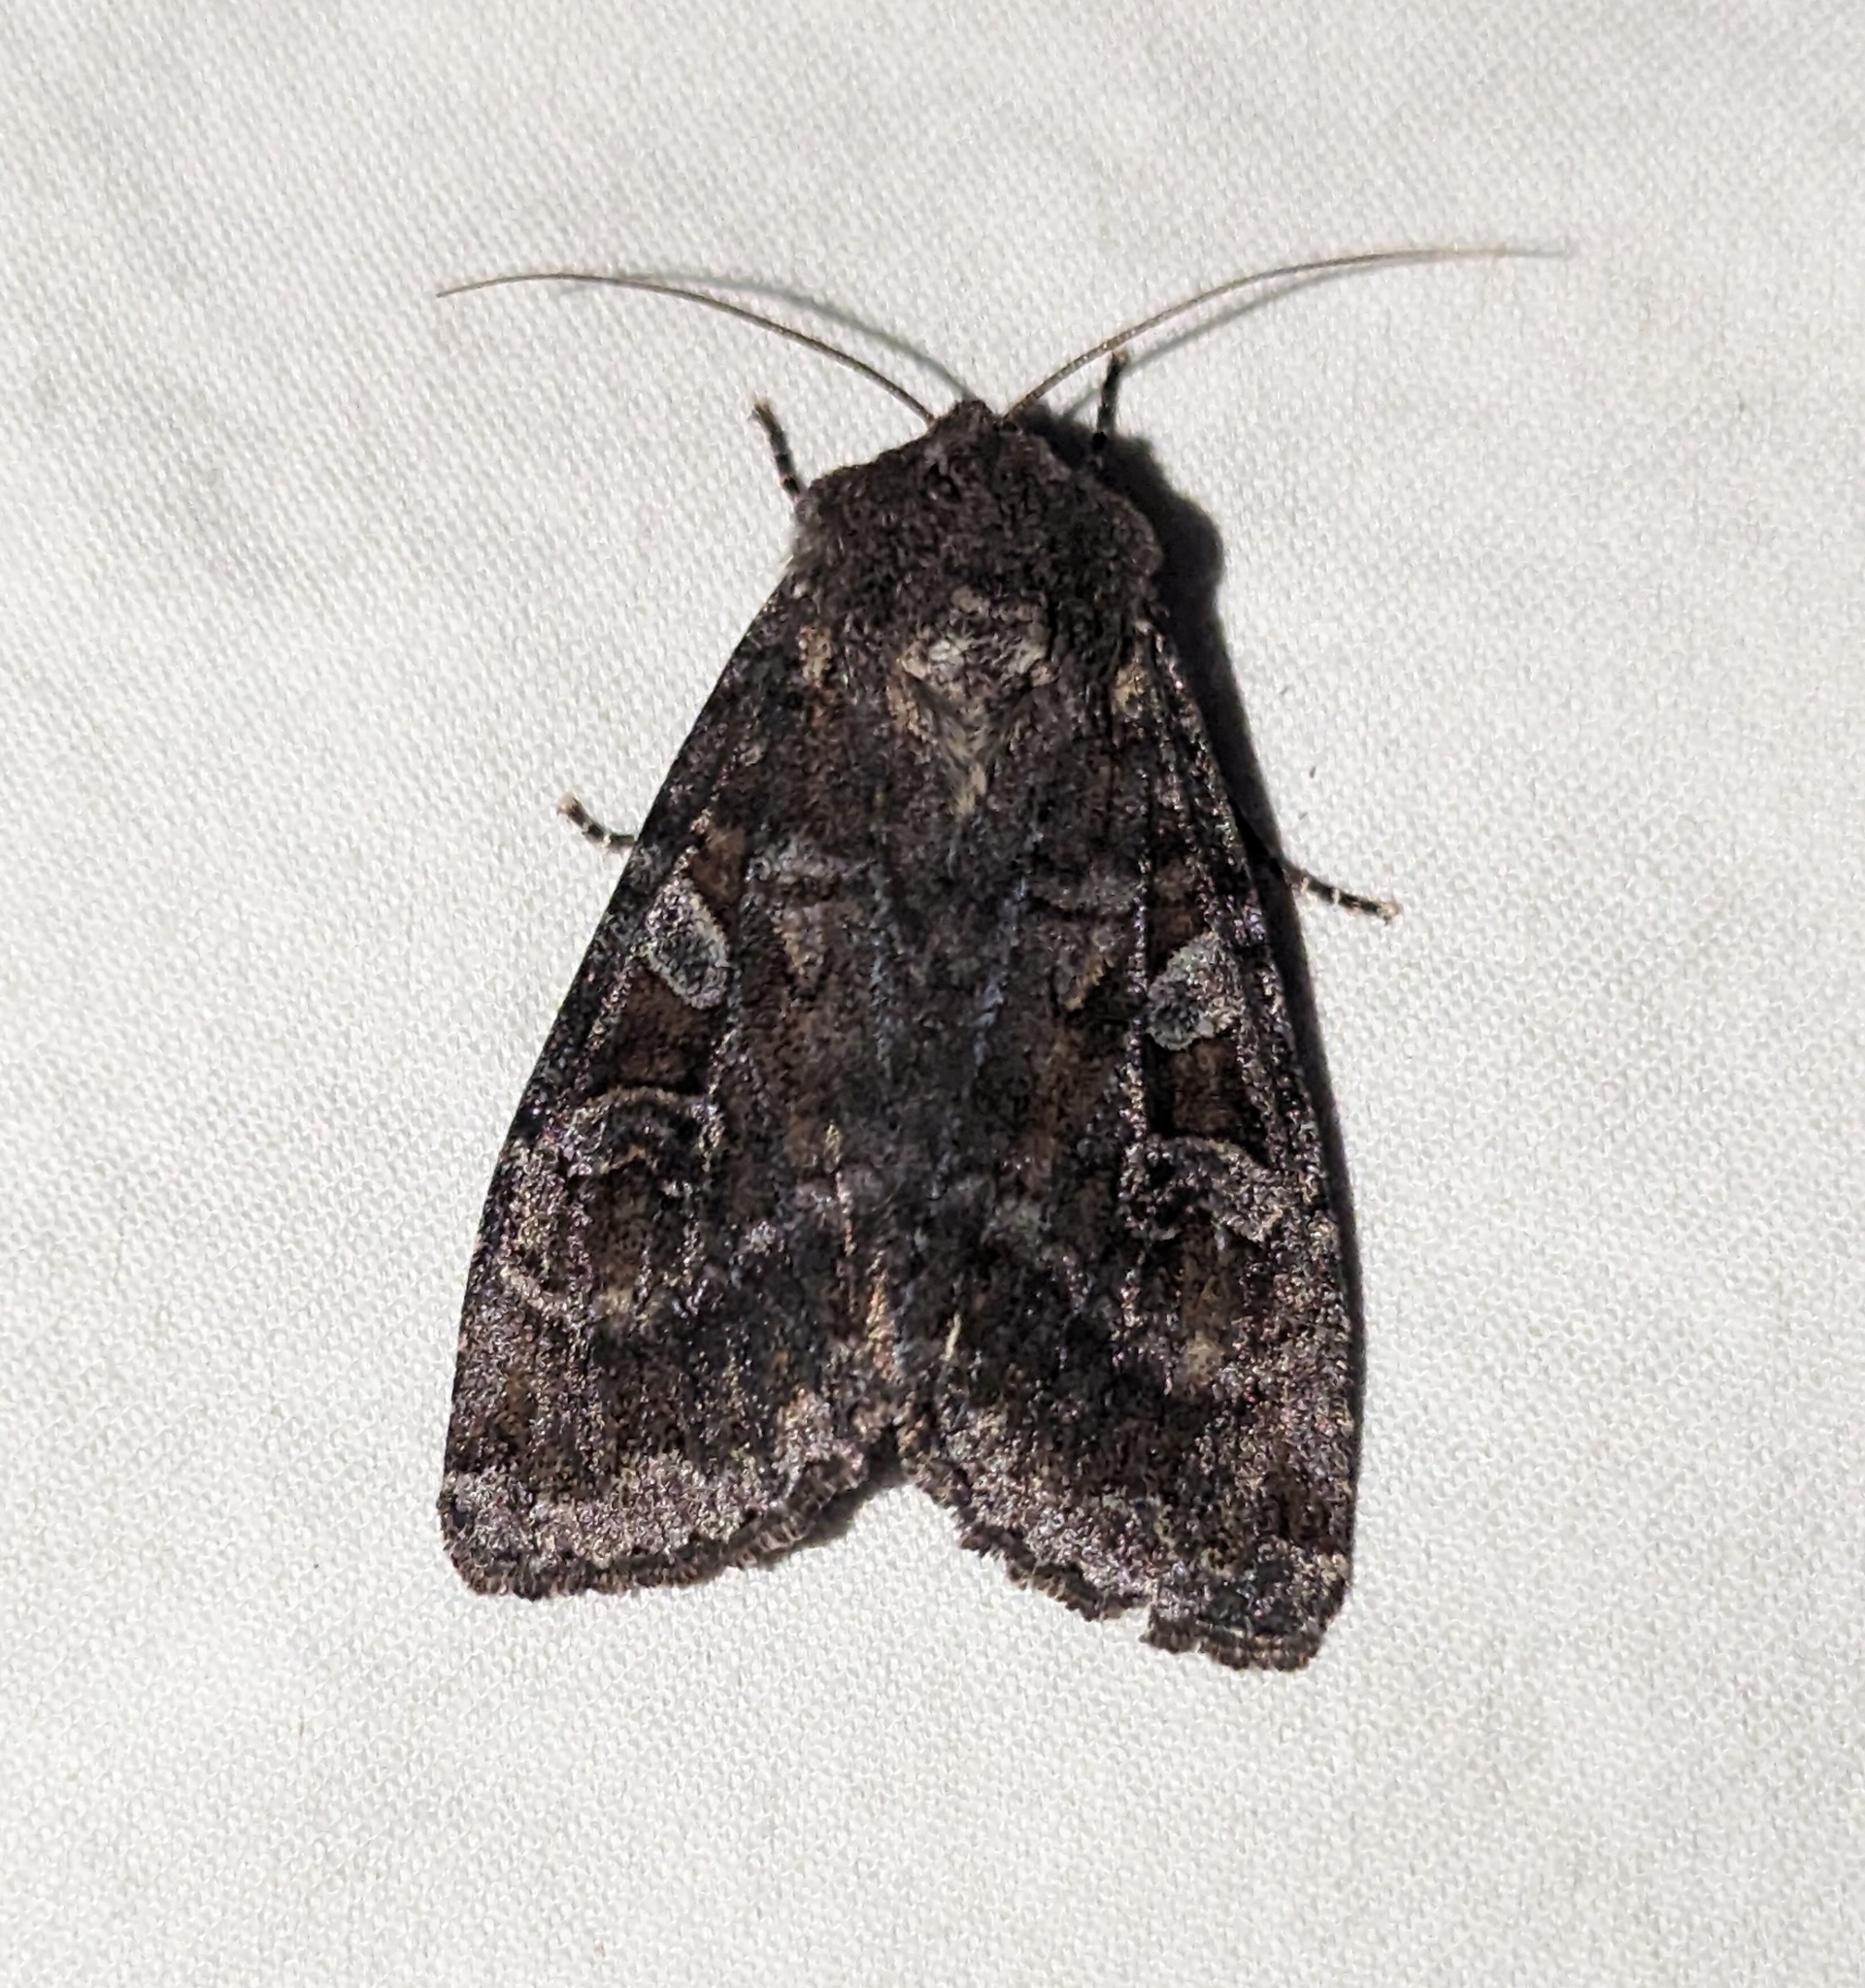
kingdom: Animalia
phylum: Arthropoda
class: Insecta
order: Lepidoptera
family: Noctuidae
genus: Eurois
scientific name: Eurois astricta
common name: Great brown dart
